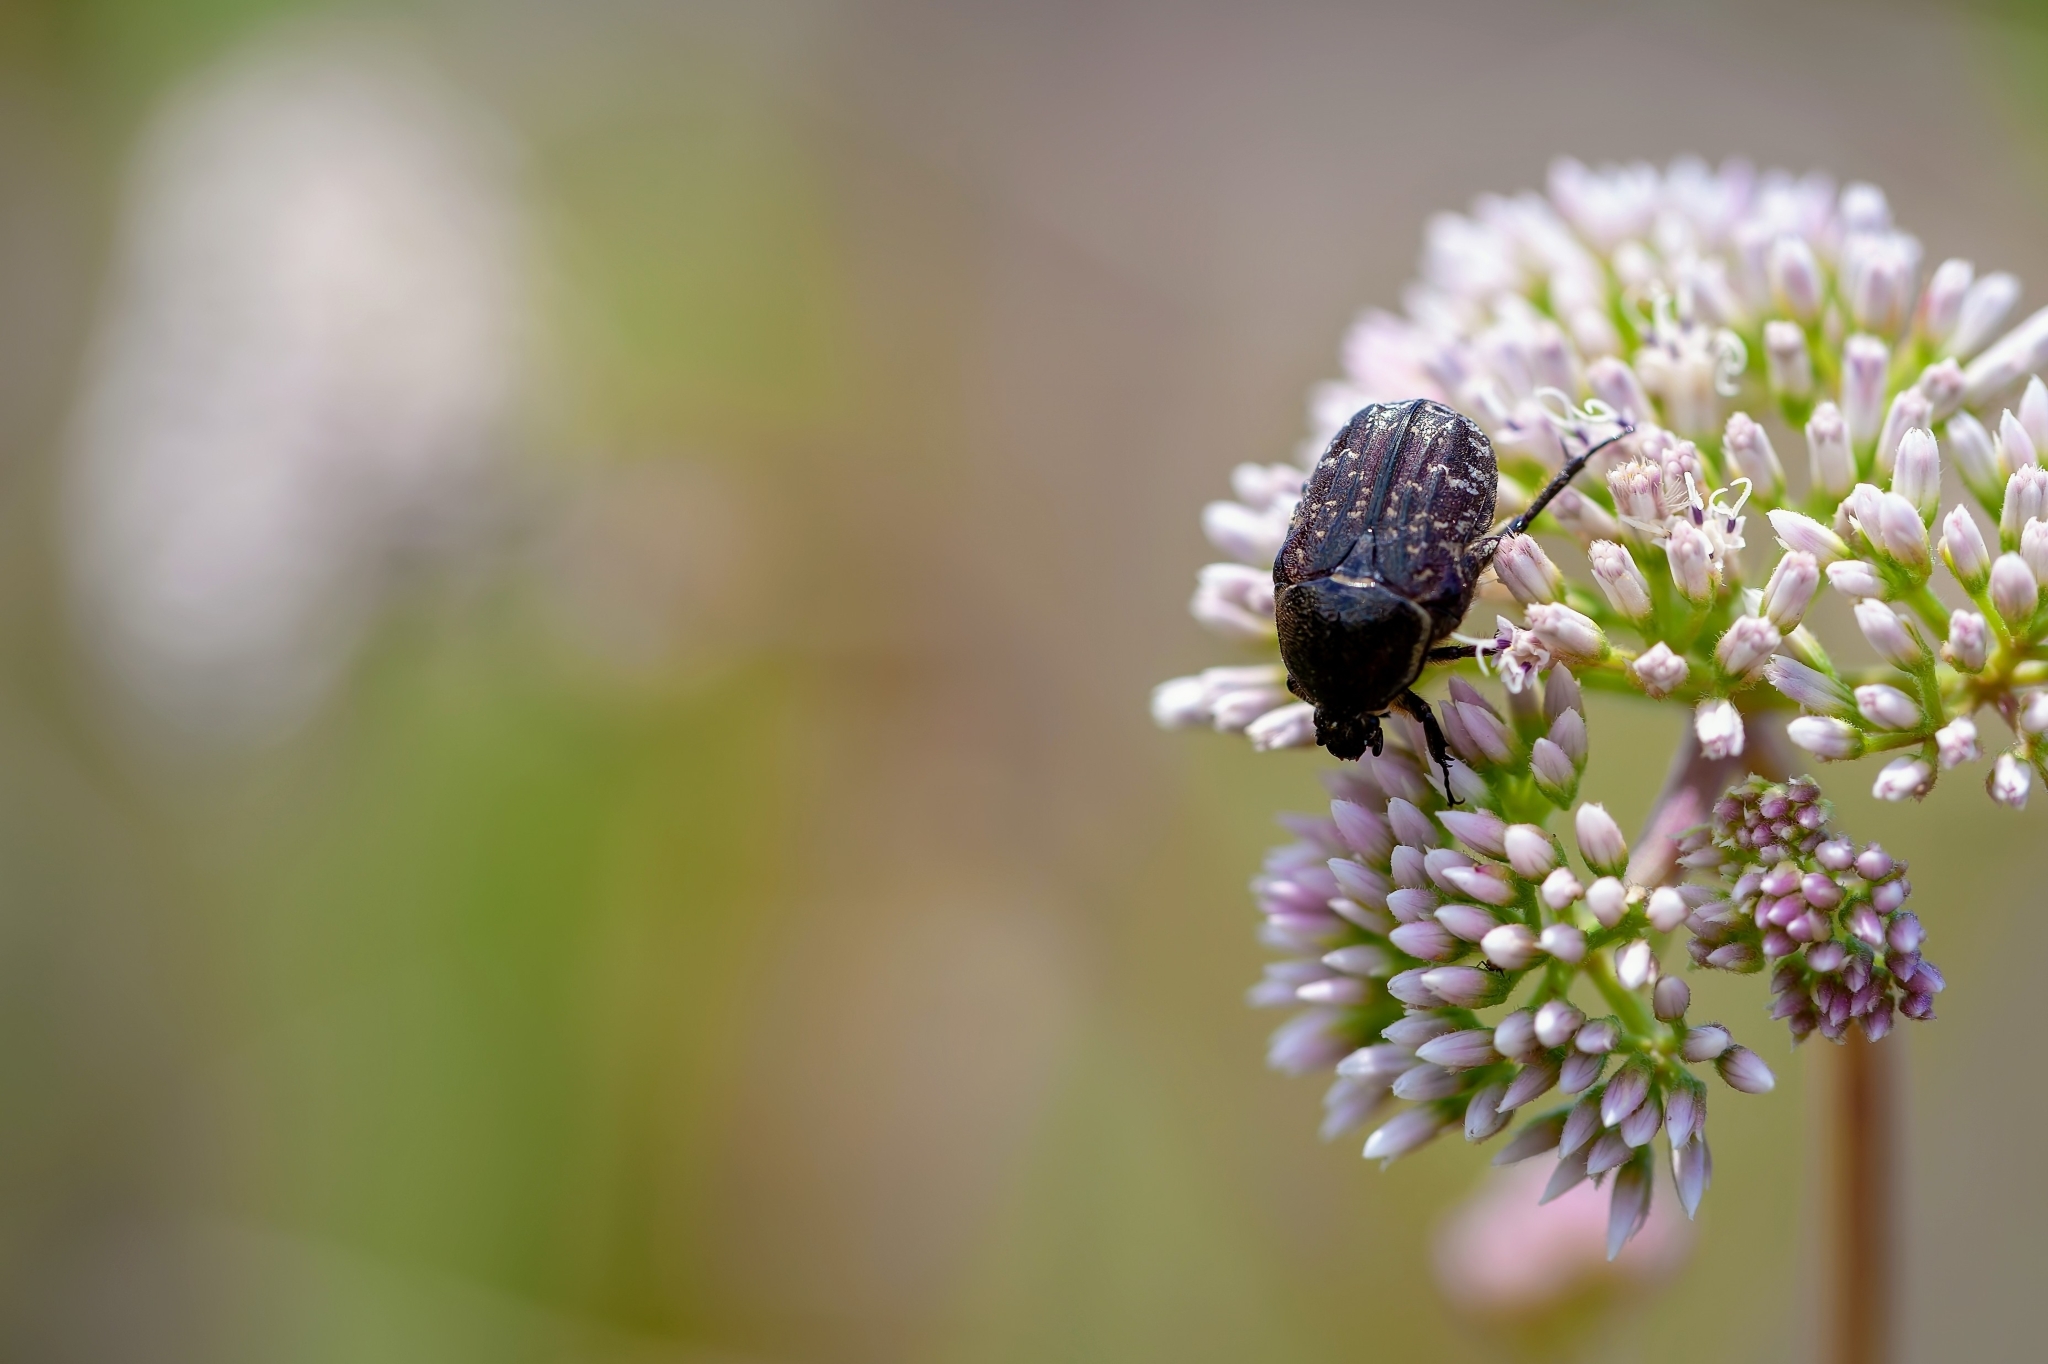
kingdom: Animalia
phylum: Arthropoda
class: Insecta
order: Coleoptera
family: Scarabaeidae
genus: Euphoria
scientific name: Euphoria sepulcralis
